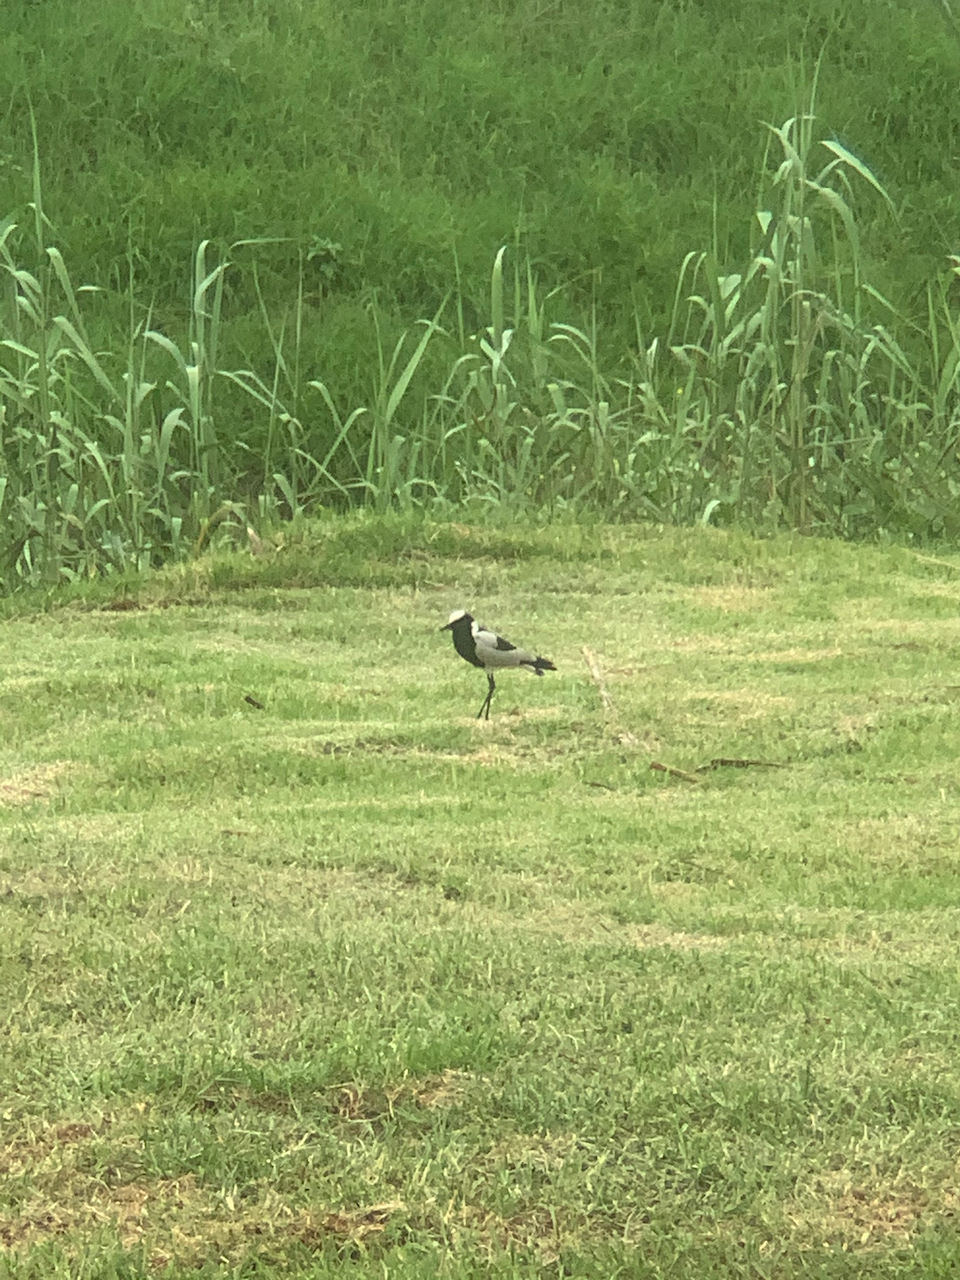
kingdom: Animalia
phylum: Chordata
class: Aves
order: Charadriiformes
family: Charadriidae
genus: Vanellus
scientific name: Vanellus armatus
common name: Blacksmith lapwing
